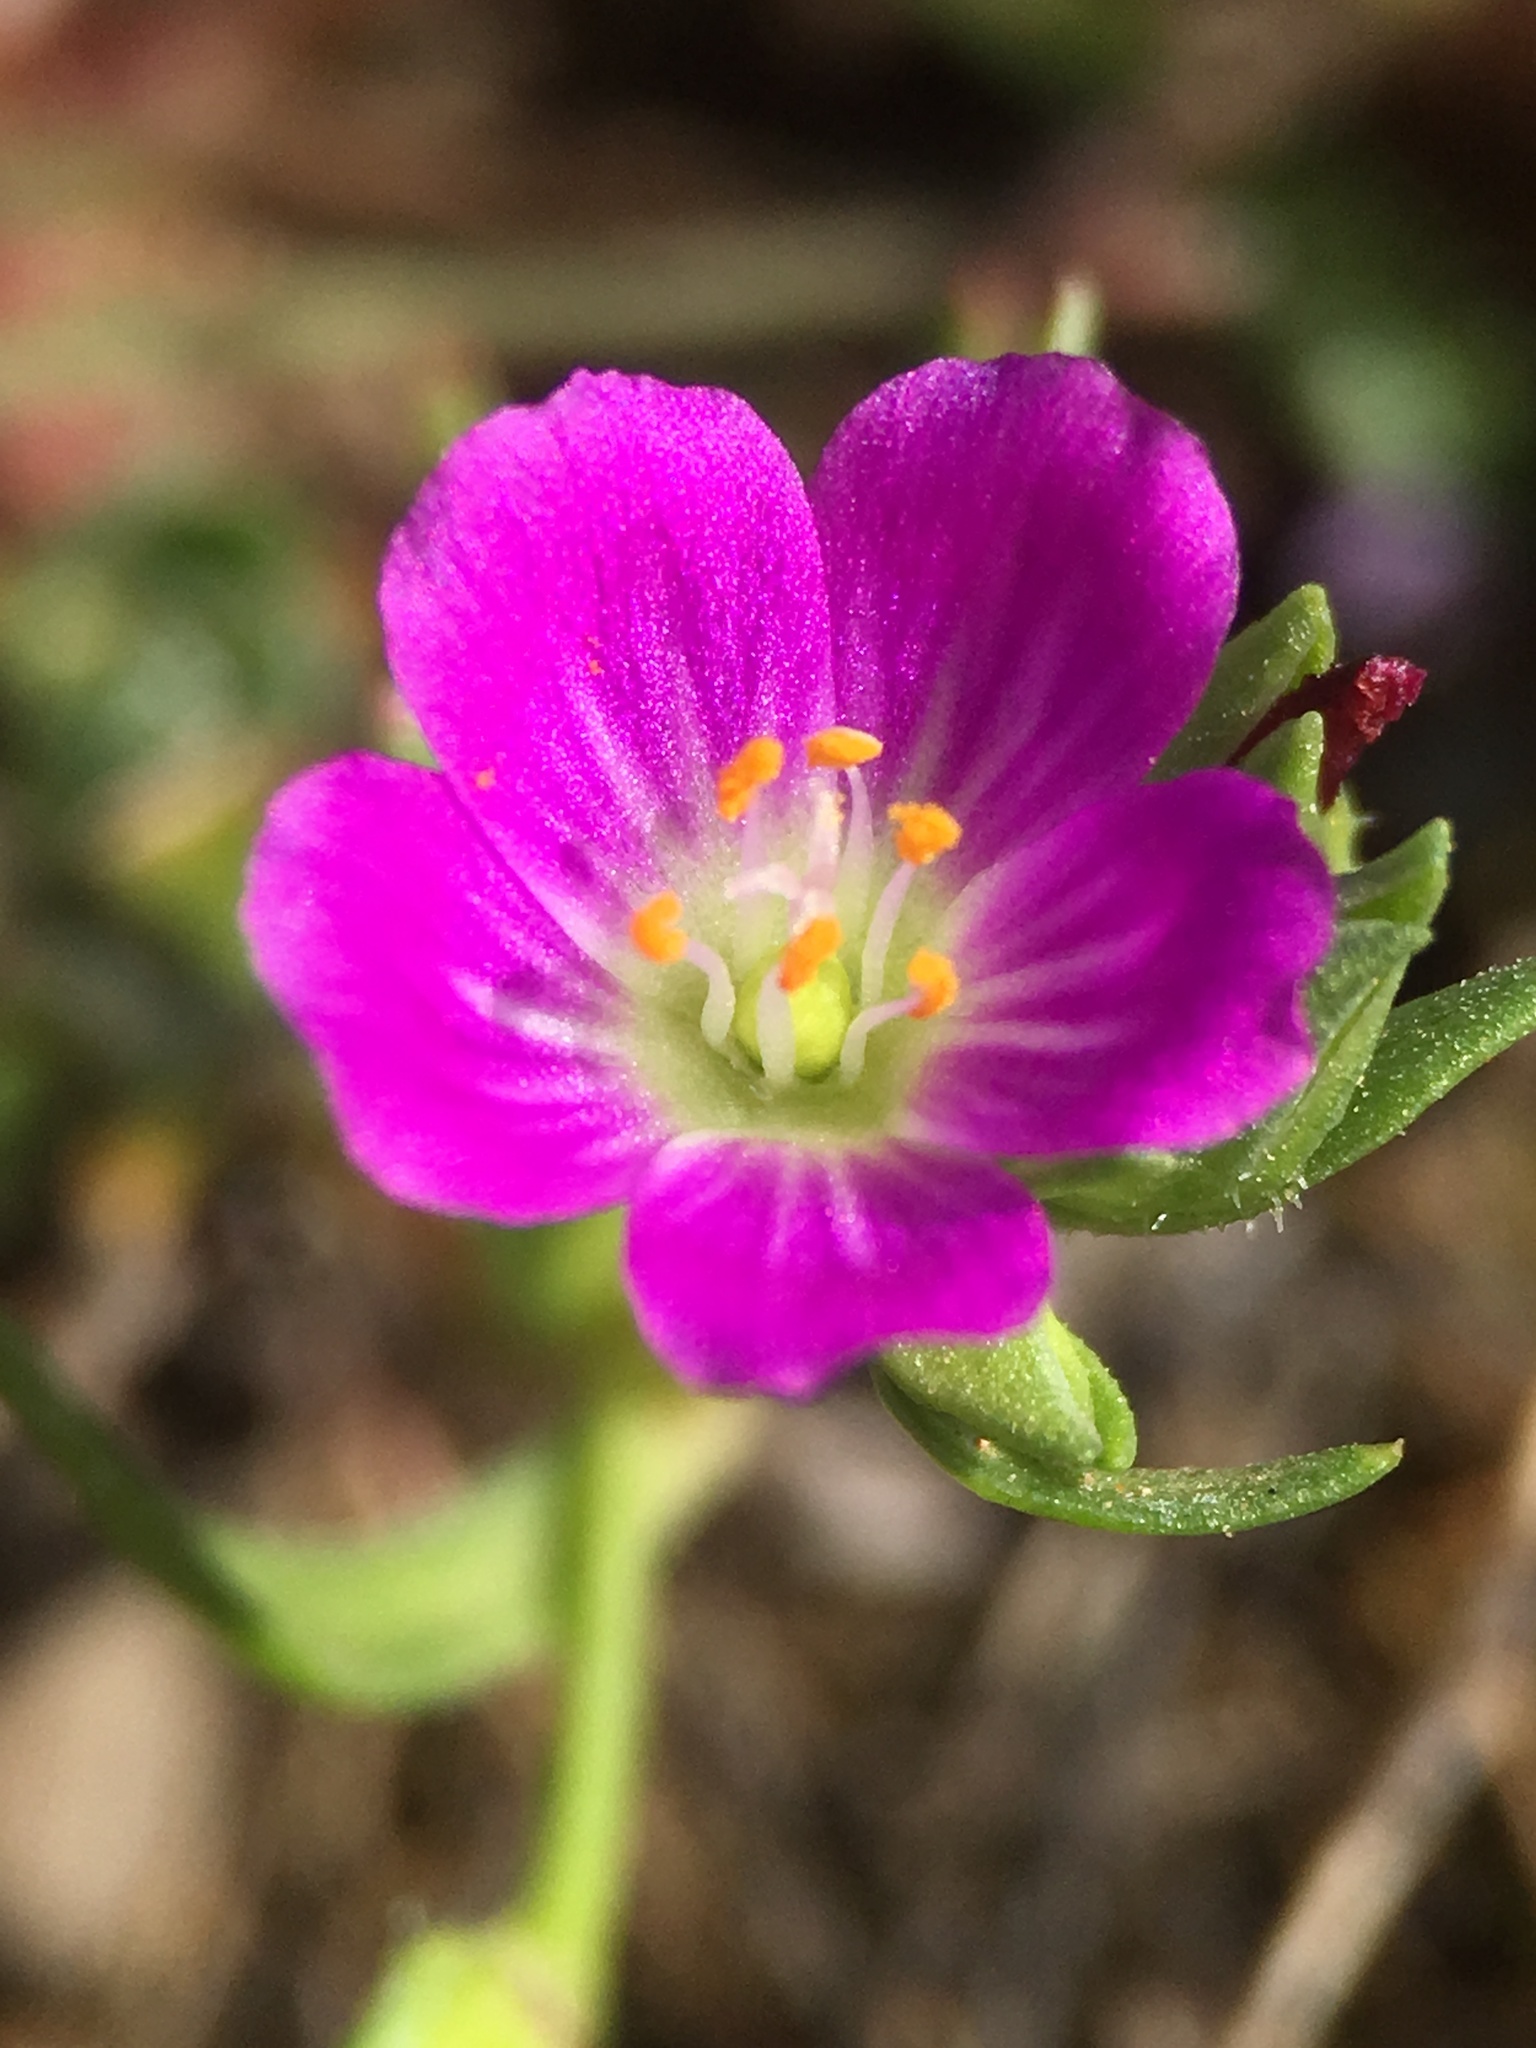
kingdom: Plantae
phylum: Tracheophyta
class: Magnoliopsida
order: Caryophyllales
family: Montiaceae
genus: Calandrinia
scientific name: Calandrinia menziesii
